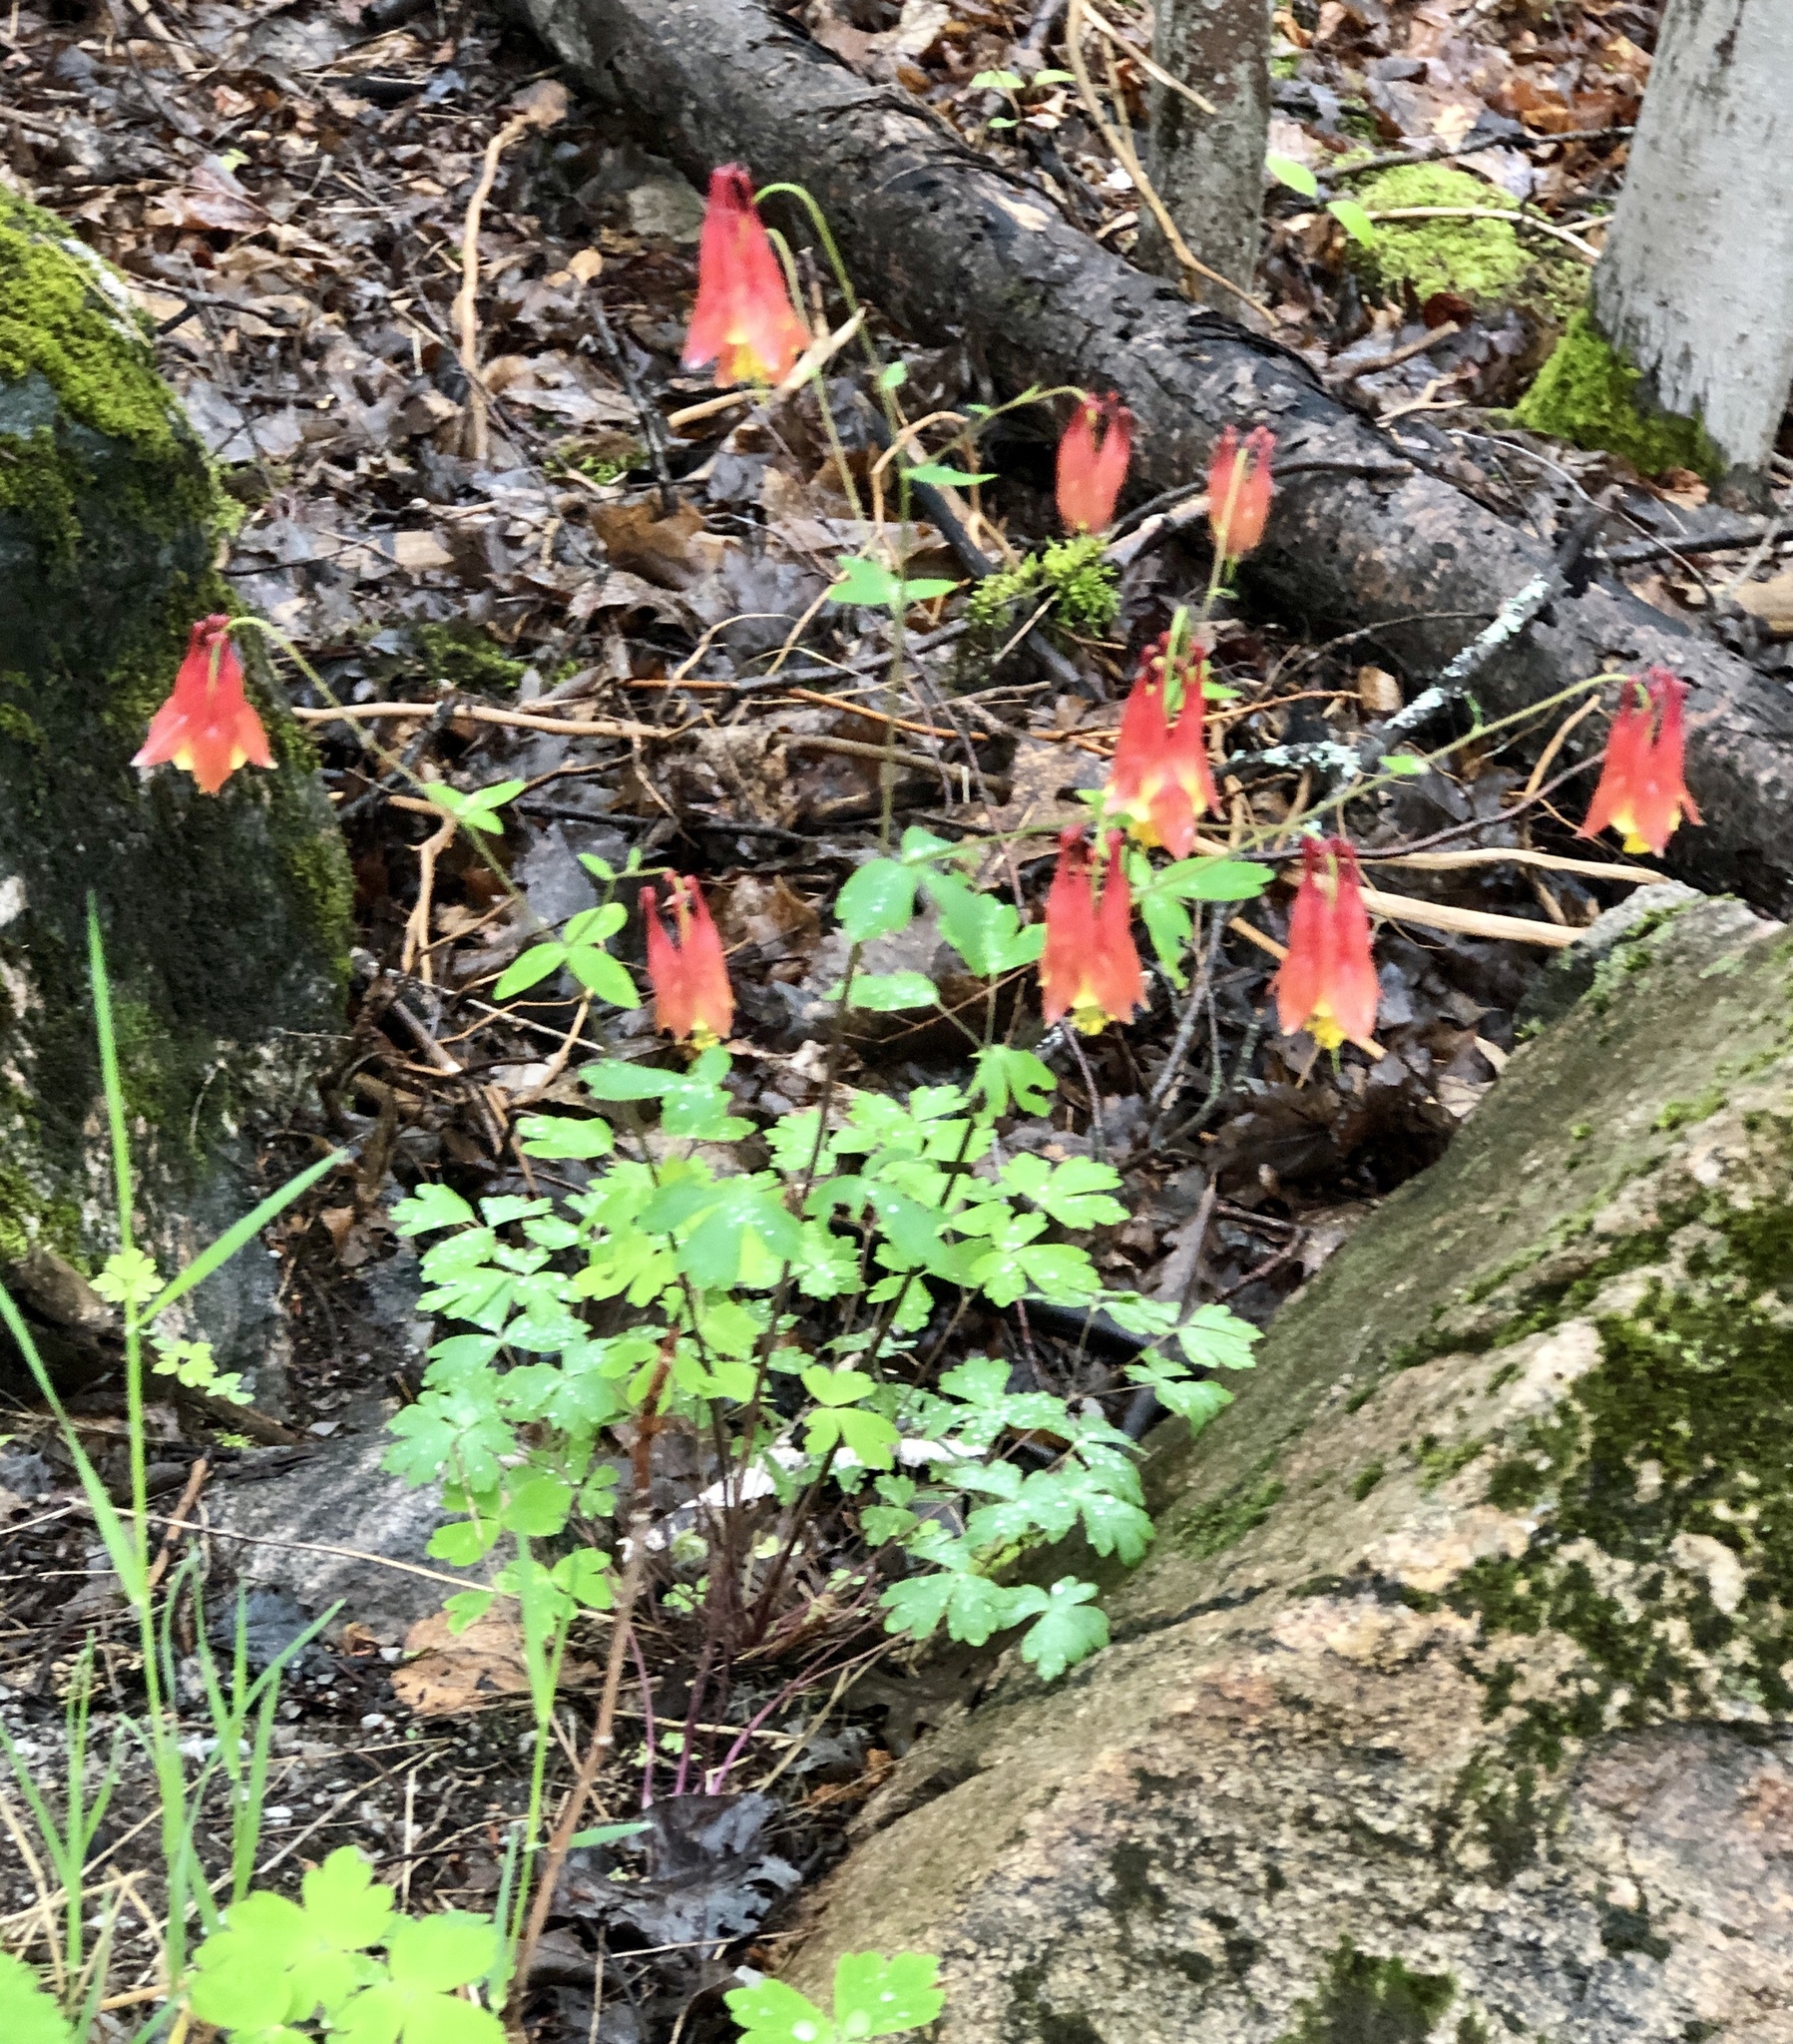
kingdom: Plantae
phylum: Tracheophyta
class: Magnoliopsida
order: Ranunculales
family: Ranunculaceae
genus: Aquilegia
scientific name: Aquilegia canadensis
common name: American columbine
